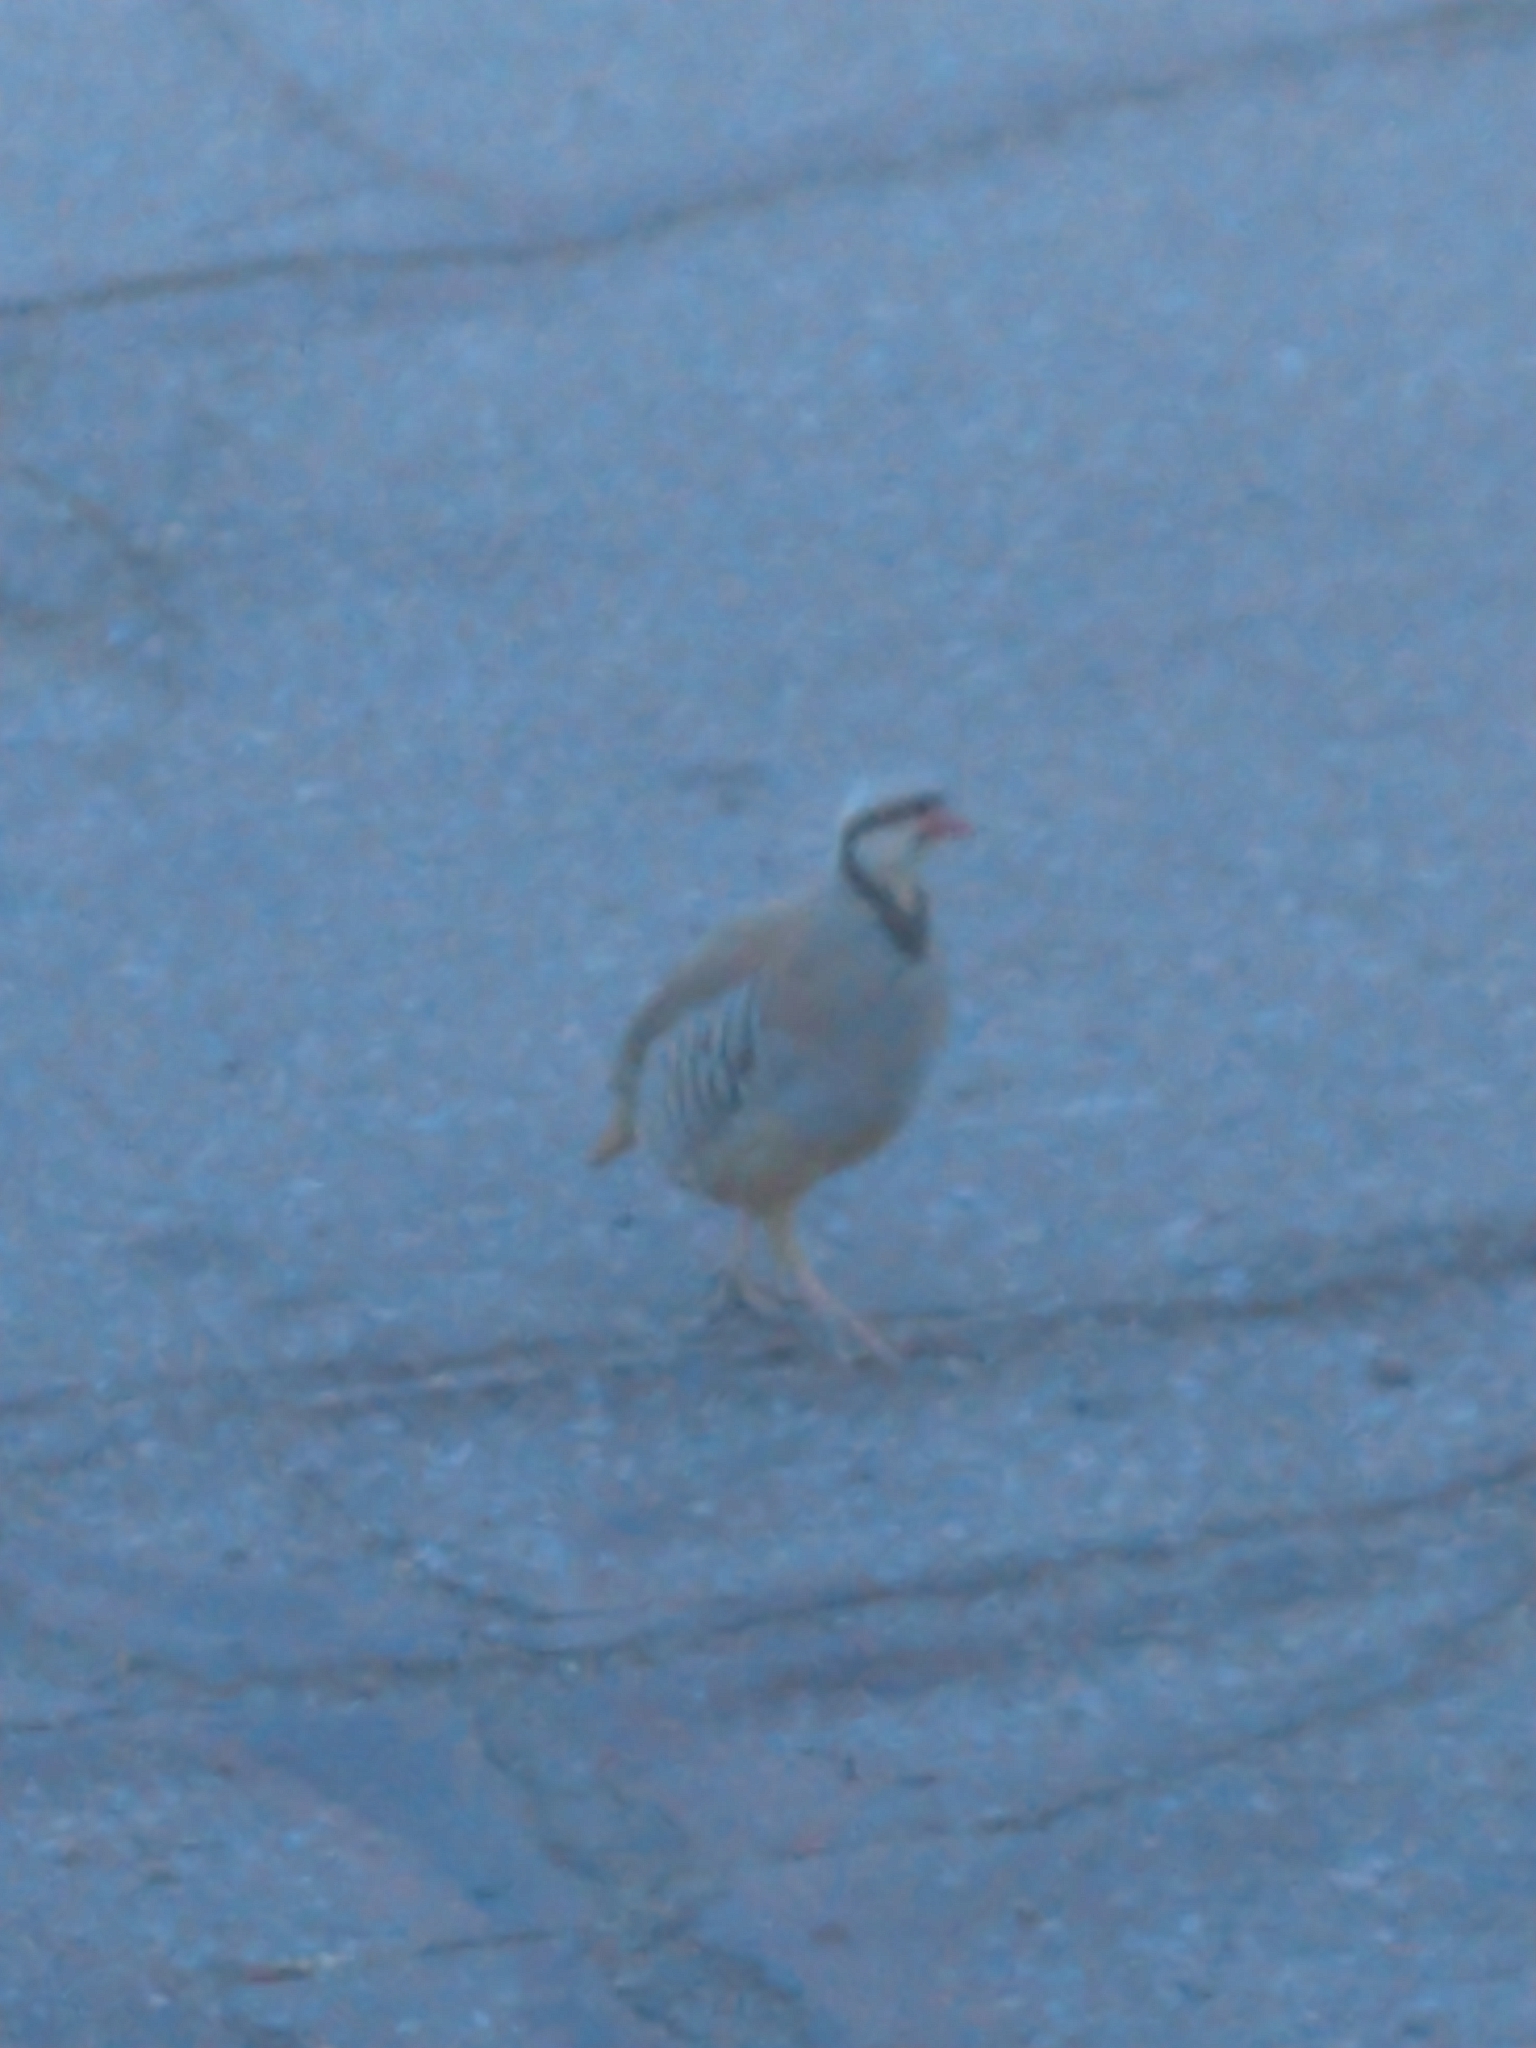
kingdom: Animalia
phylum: Chordata
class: Aves
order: Galliformes
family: Phasianidae
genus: Alectoris
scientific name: Alectoris chukar
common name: Chukar
